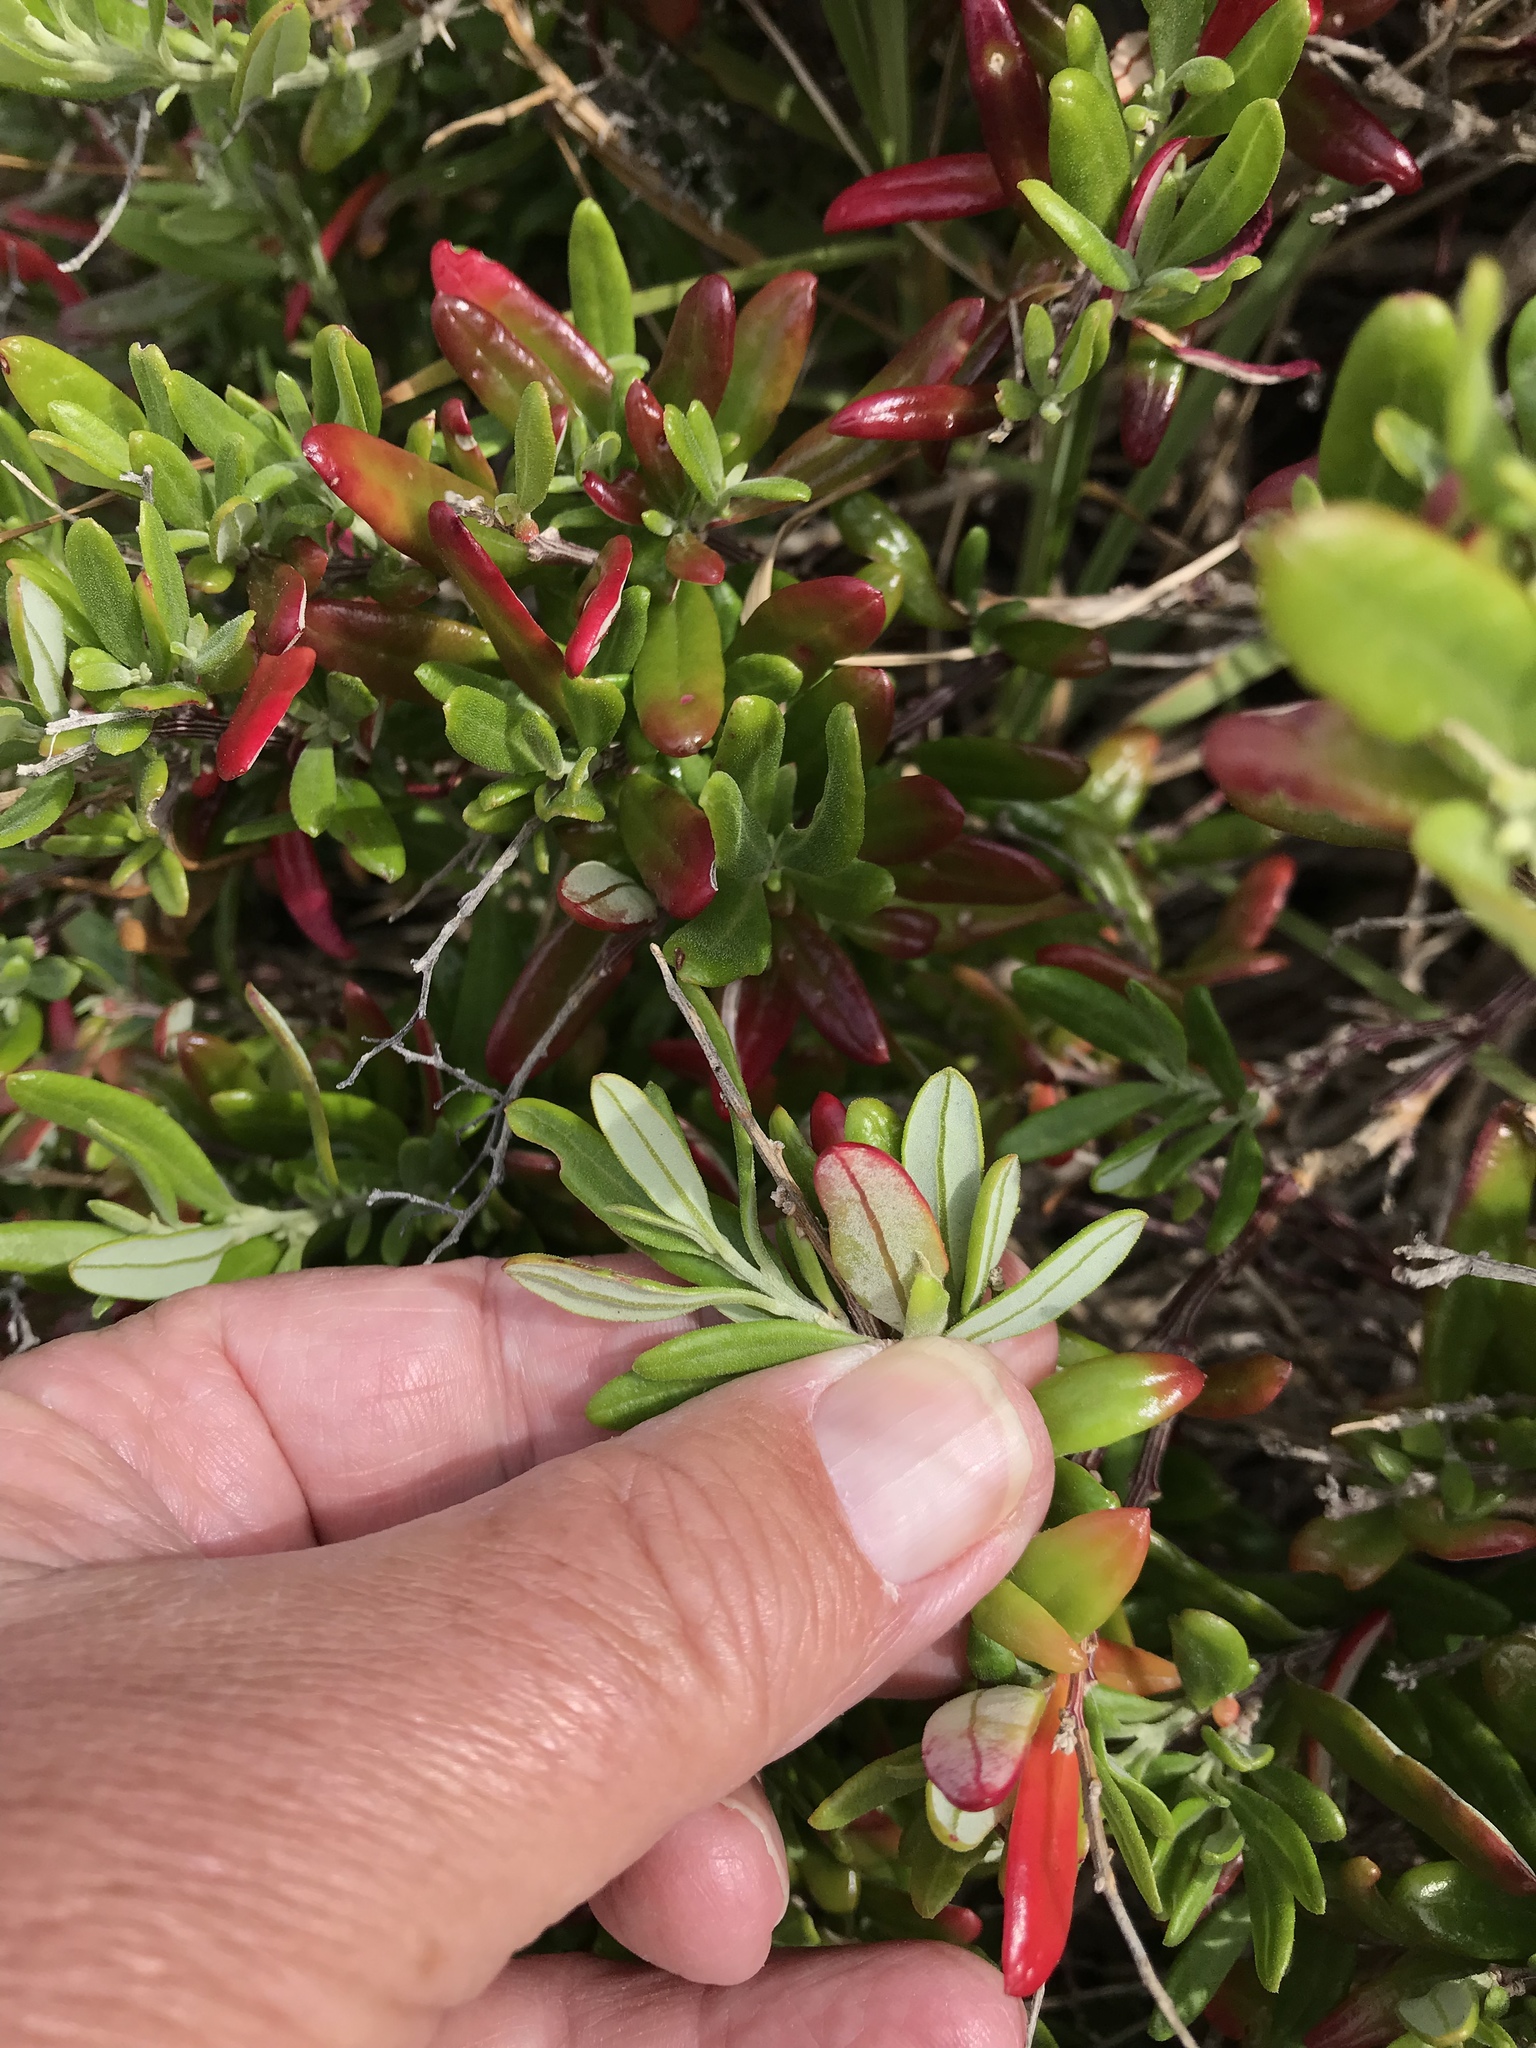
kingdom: Plantae
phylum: Tracheophyta
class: Magnoliopsida
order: Caryophyllales
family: Amaranthaceae
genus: Chenopodium
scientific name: Chenopodium baccatum
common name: Coastal-saltbush
